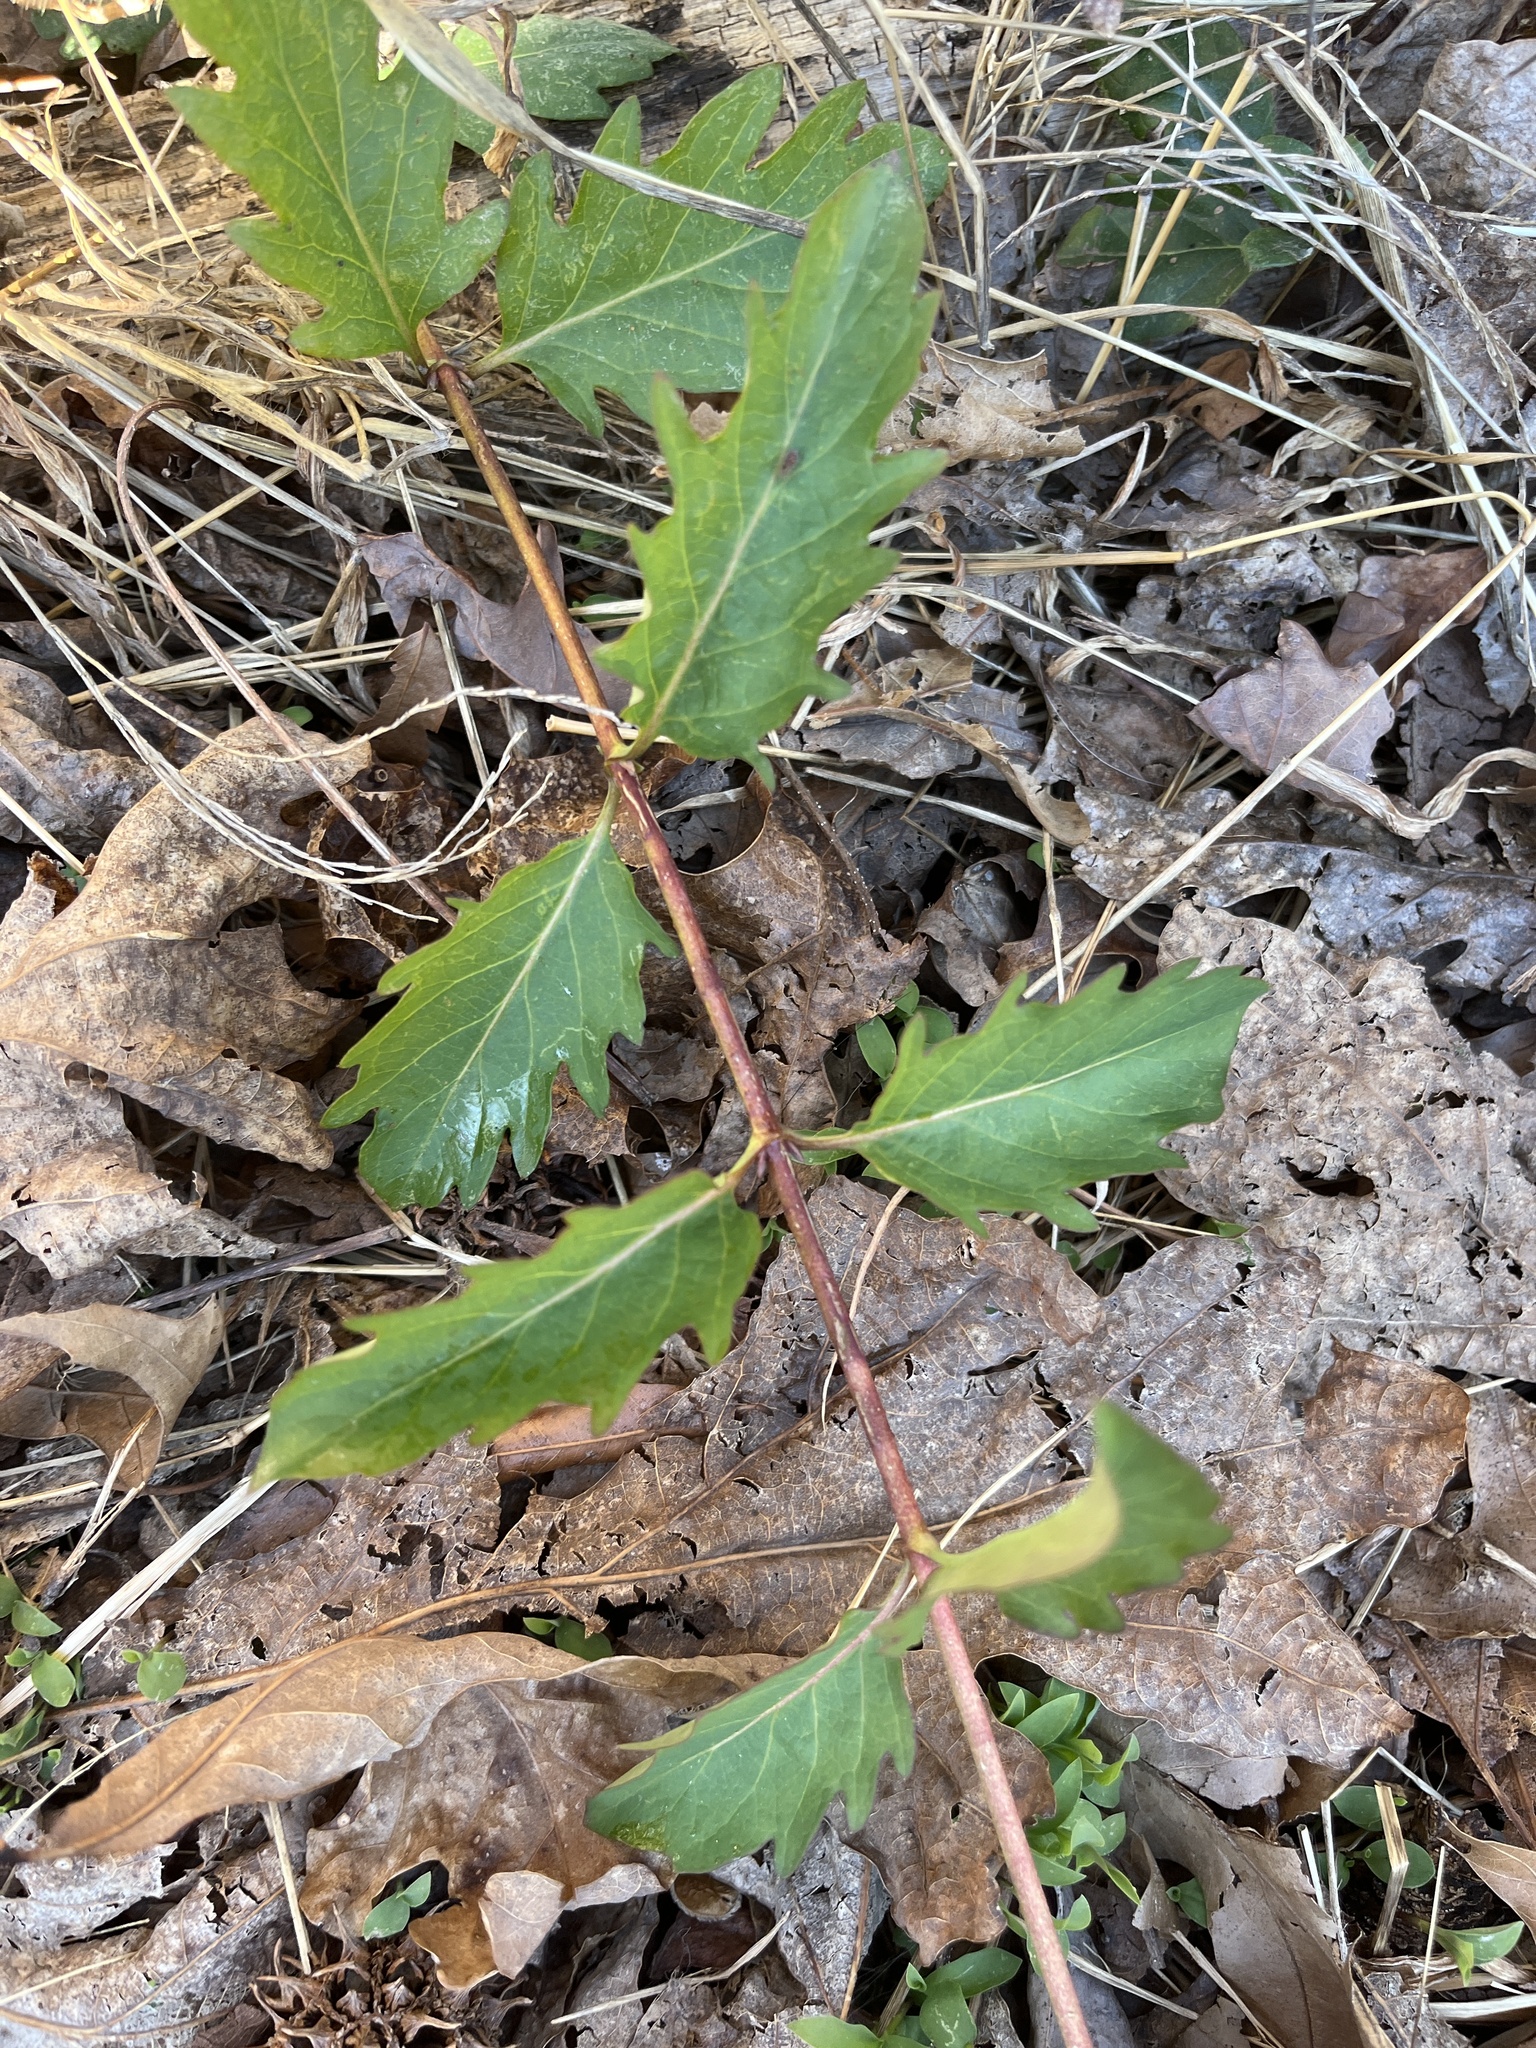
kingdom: Plantae
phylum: Tracheophyta
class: Magnoliopsida
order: Dipsacales
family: Caprifoliaceae
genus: Lonicera
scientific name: Lonicera japonica
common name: Japanese honeysuckle
